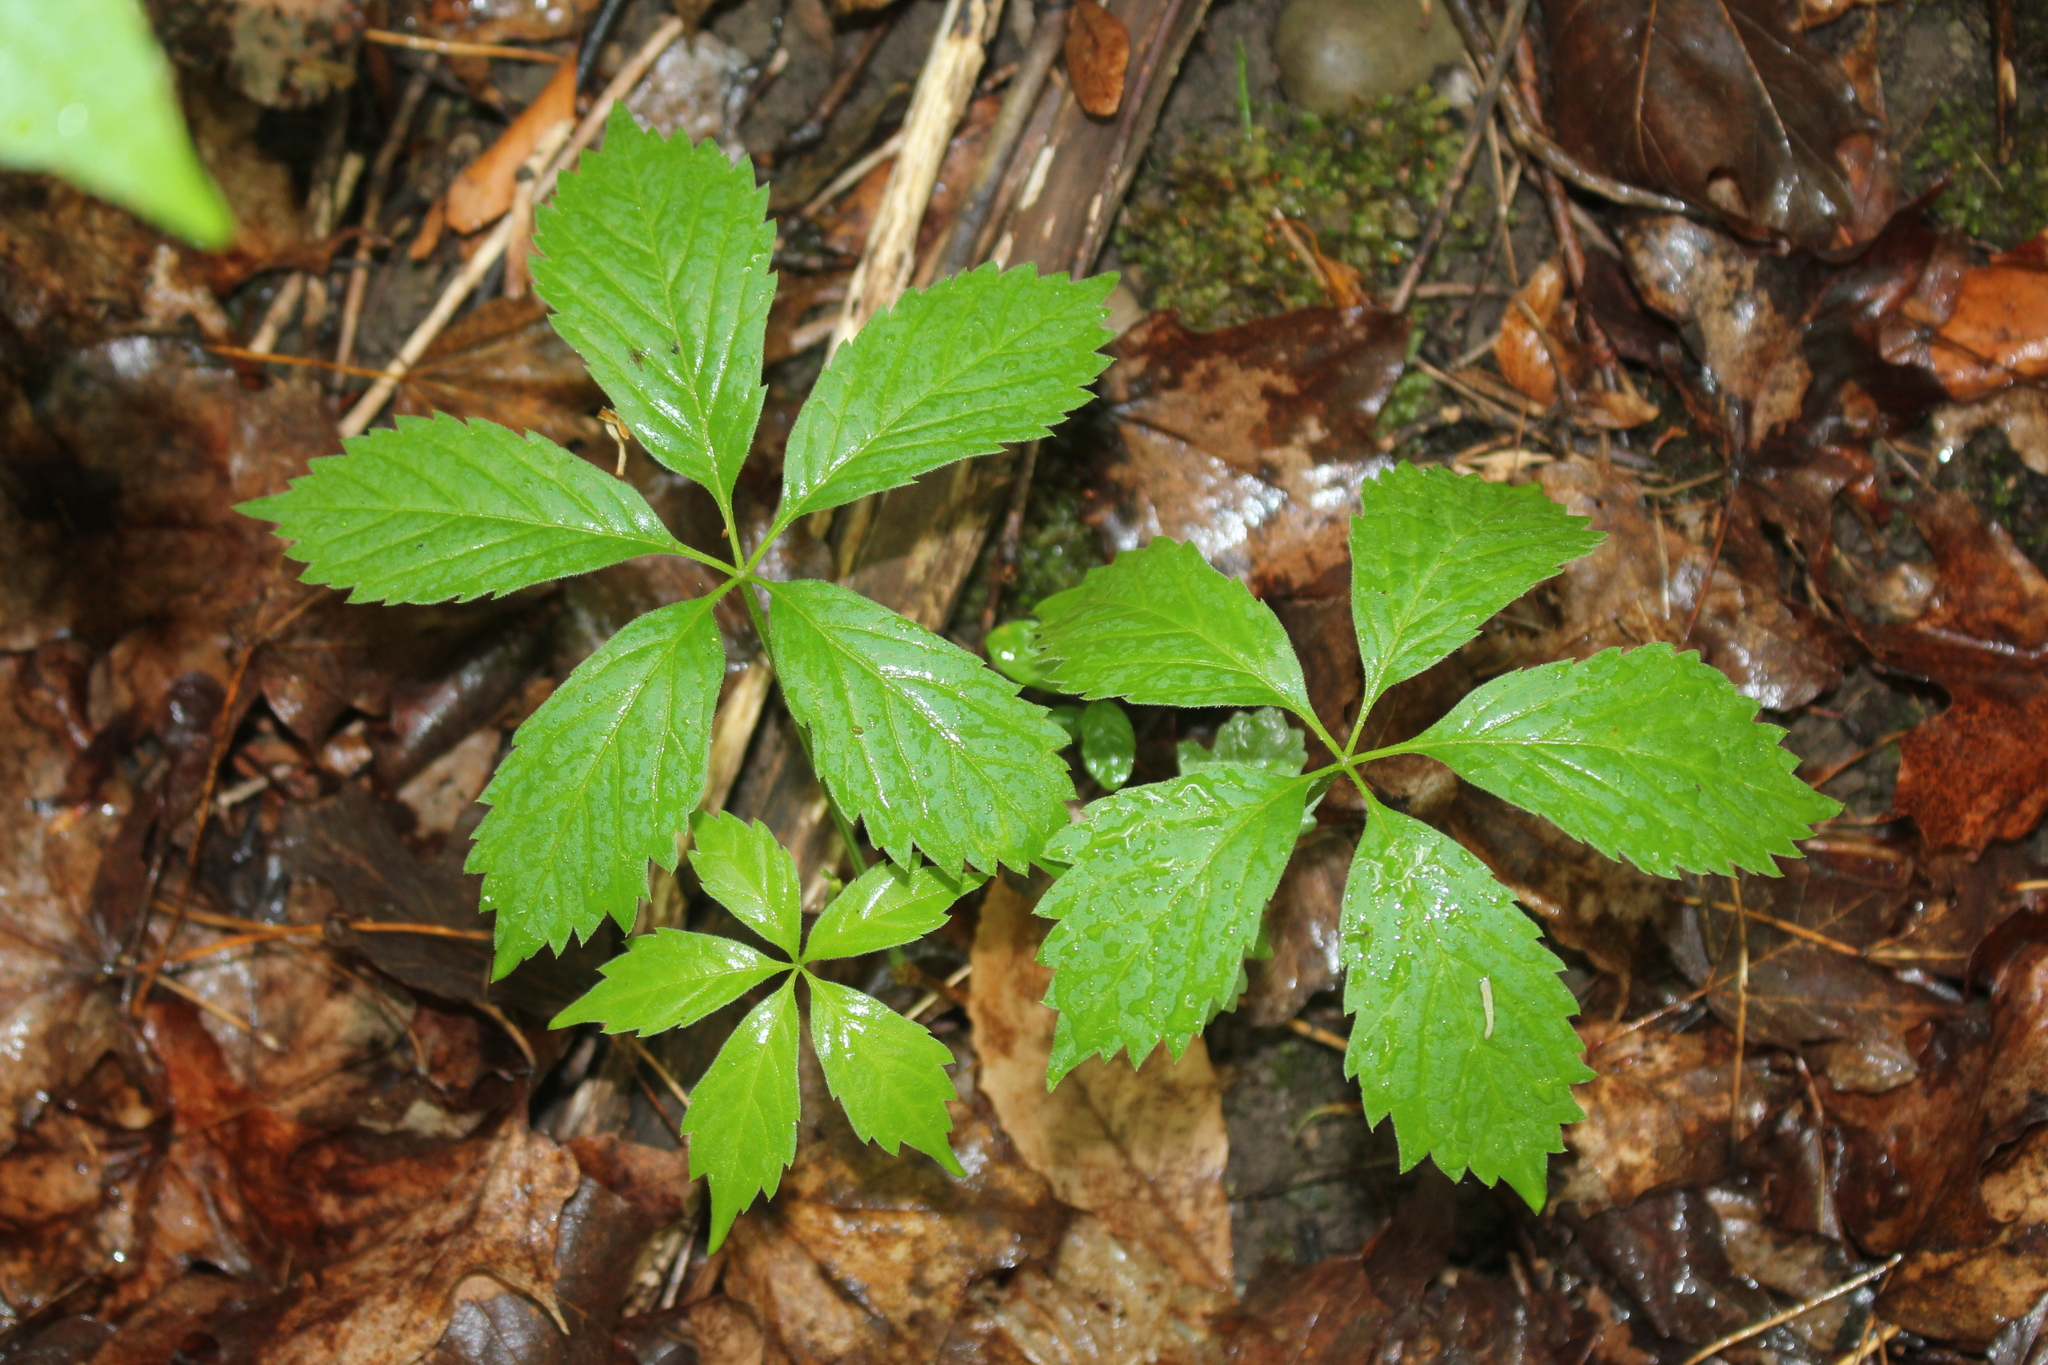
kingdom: Plantae
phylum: Tracheophyta
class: Magnoliopsida
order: Vitales
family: Vitaceae
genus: Parthenocissus
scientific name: Parthenocissus inserta
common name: False virginia-creeper
